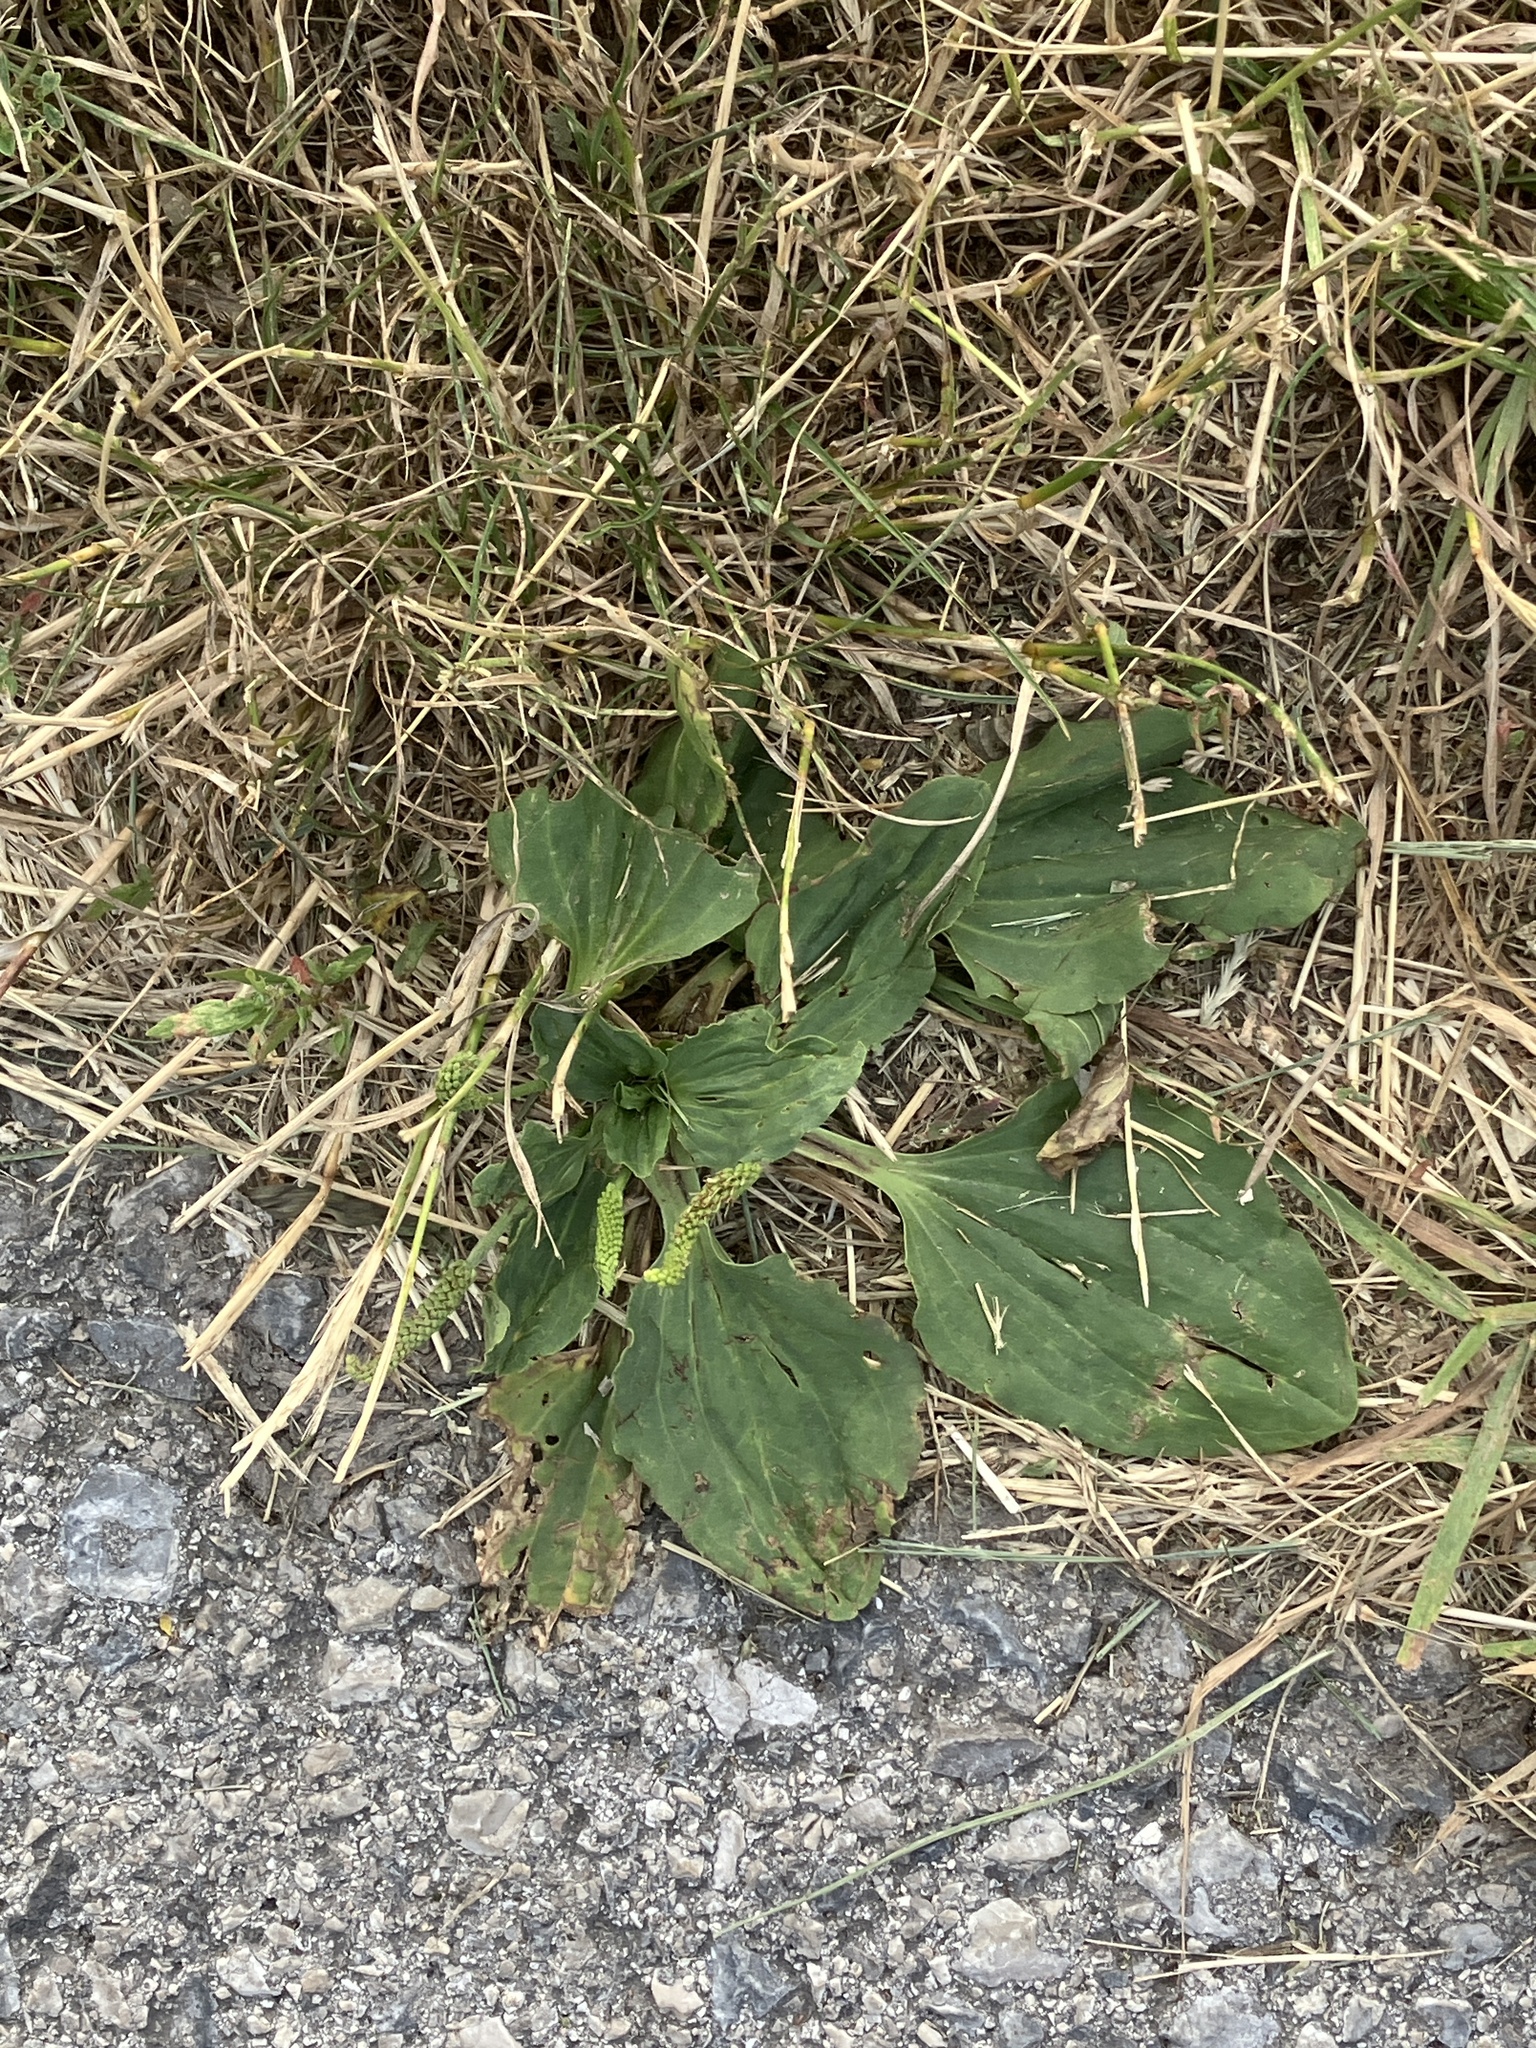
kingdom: Plantae
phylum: Tracheophyta
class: Magnoliopsida
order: Lamiales
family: Plantaginaceae
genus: Plantago
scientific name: Plantago major
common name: Common plantain
